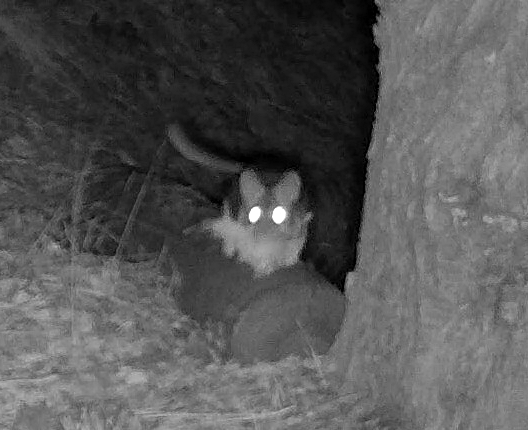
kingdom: Animalia
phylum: Chordata
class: Mammalia
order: Rodentia
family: Cricetidae
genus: Neotoma
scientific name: Neotoma cinerea
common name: Bushy-tailed woodrat
